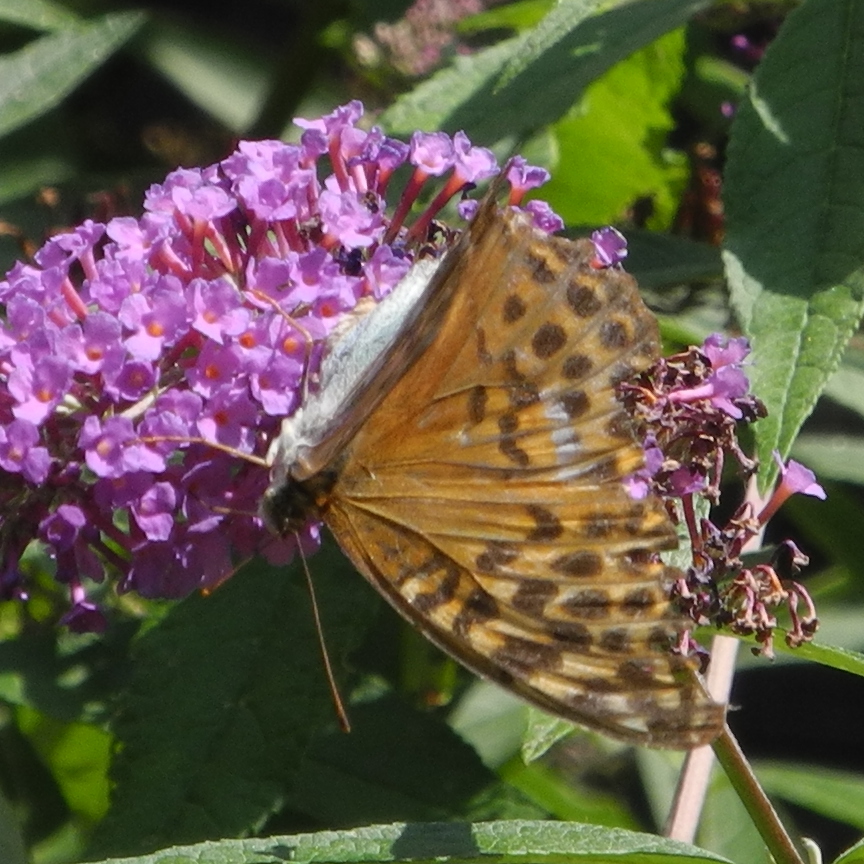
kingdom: Animalia
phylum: Arthropoda
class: Insecta
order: Lepidoptera
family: Nymphalidae
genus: Argynnis
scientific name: Argynnis paphia
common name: Silver-washed fritillary
